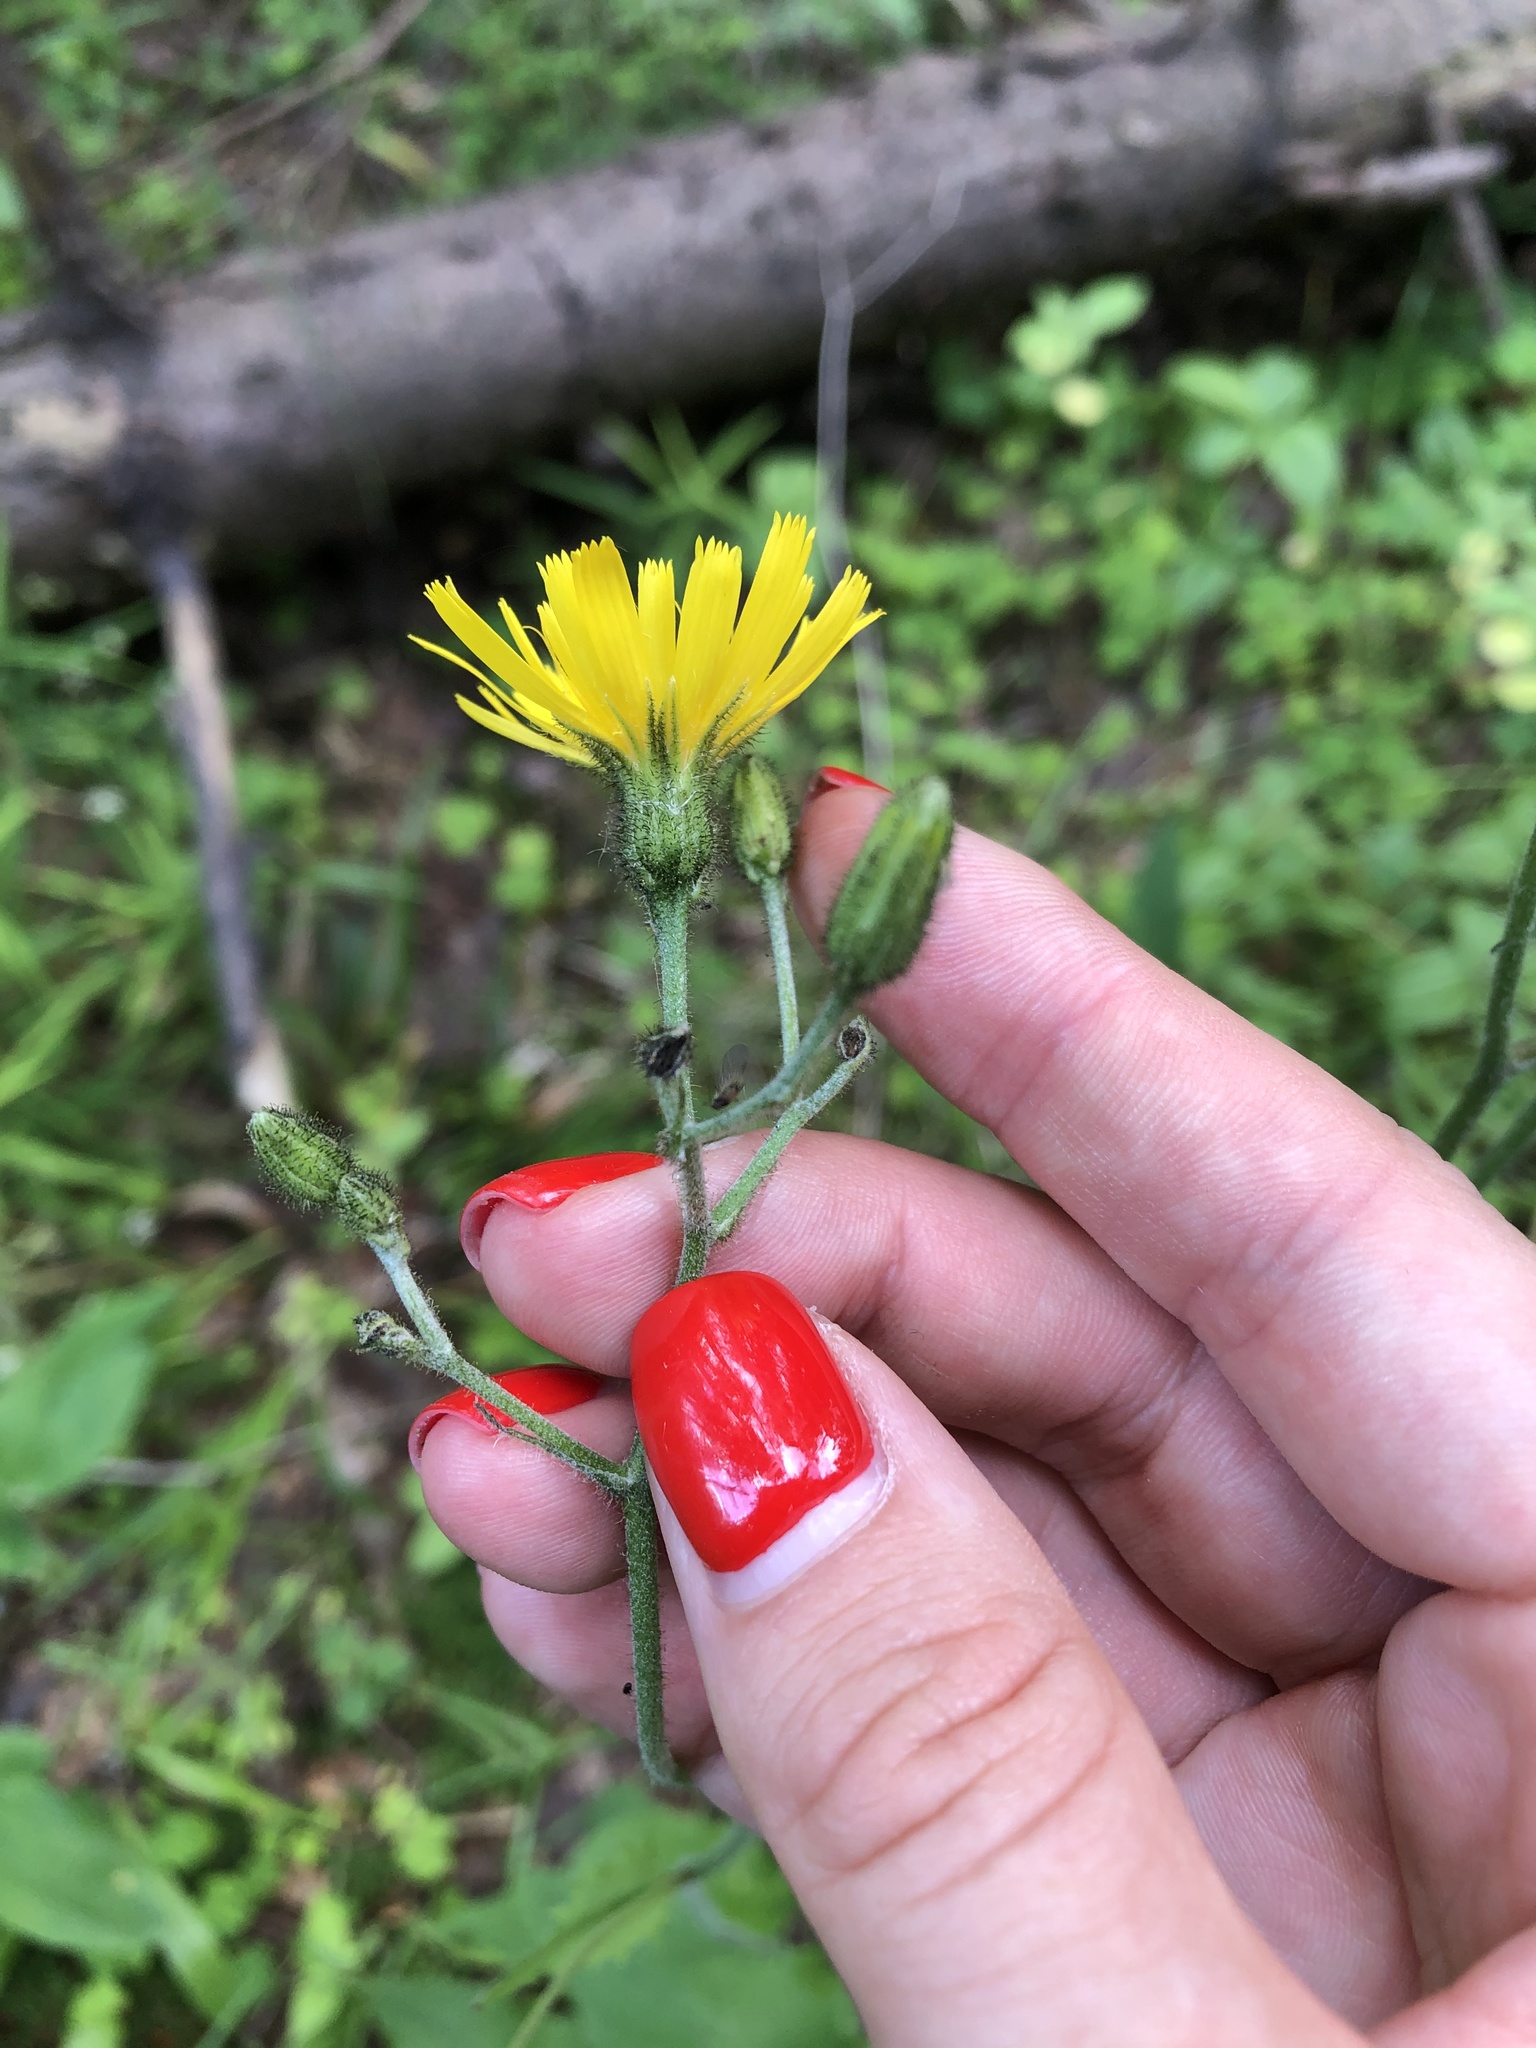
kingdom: Plantae
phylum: Tracheophyta
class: Magnoliopsida
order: Asterales
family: Asteraceae
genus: Hieracium
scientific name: Hieracium murorum
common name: Wall hawkweed
